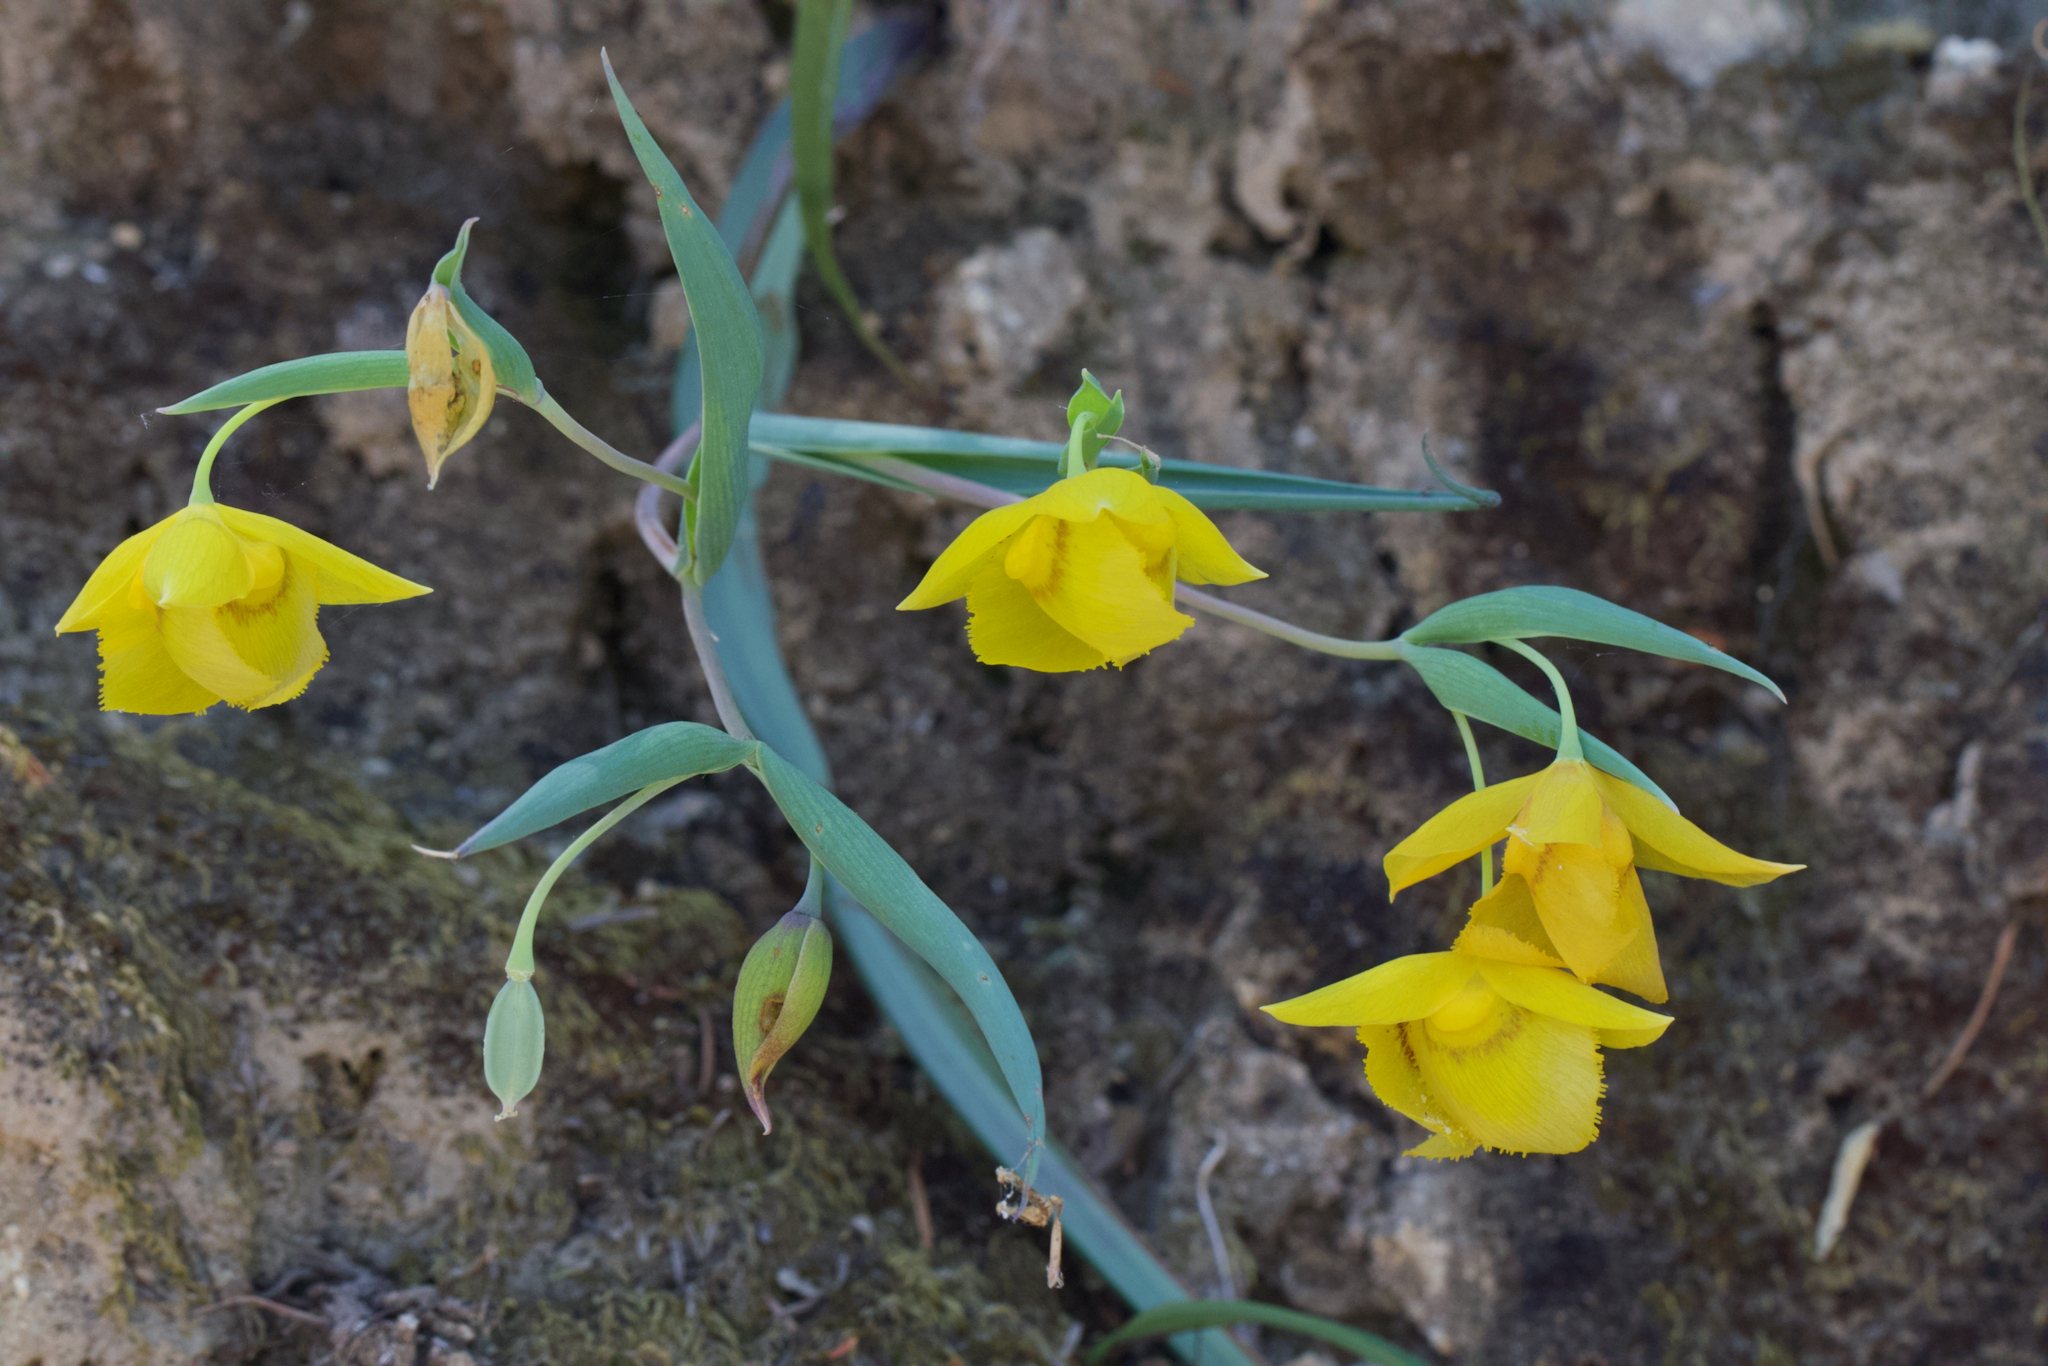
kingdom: Plantae
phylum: Tracheophyta
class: Liliopsida
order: Liliales
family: Liliaceae
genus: Calochortus
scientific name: Calochortus amabilis
